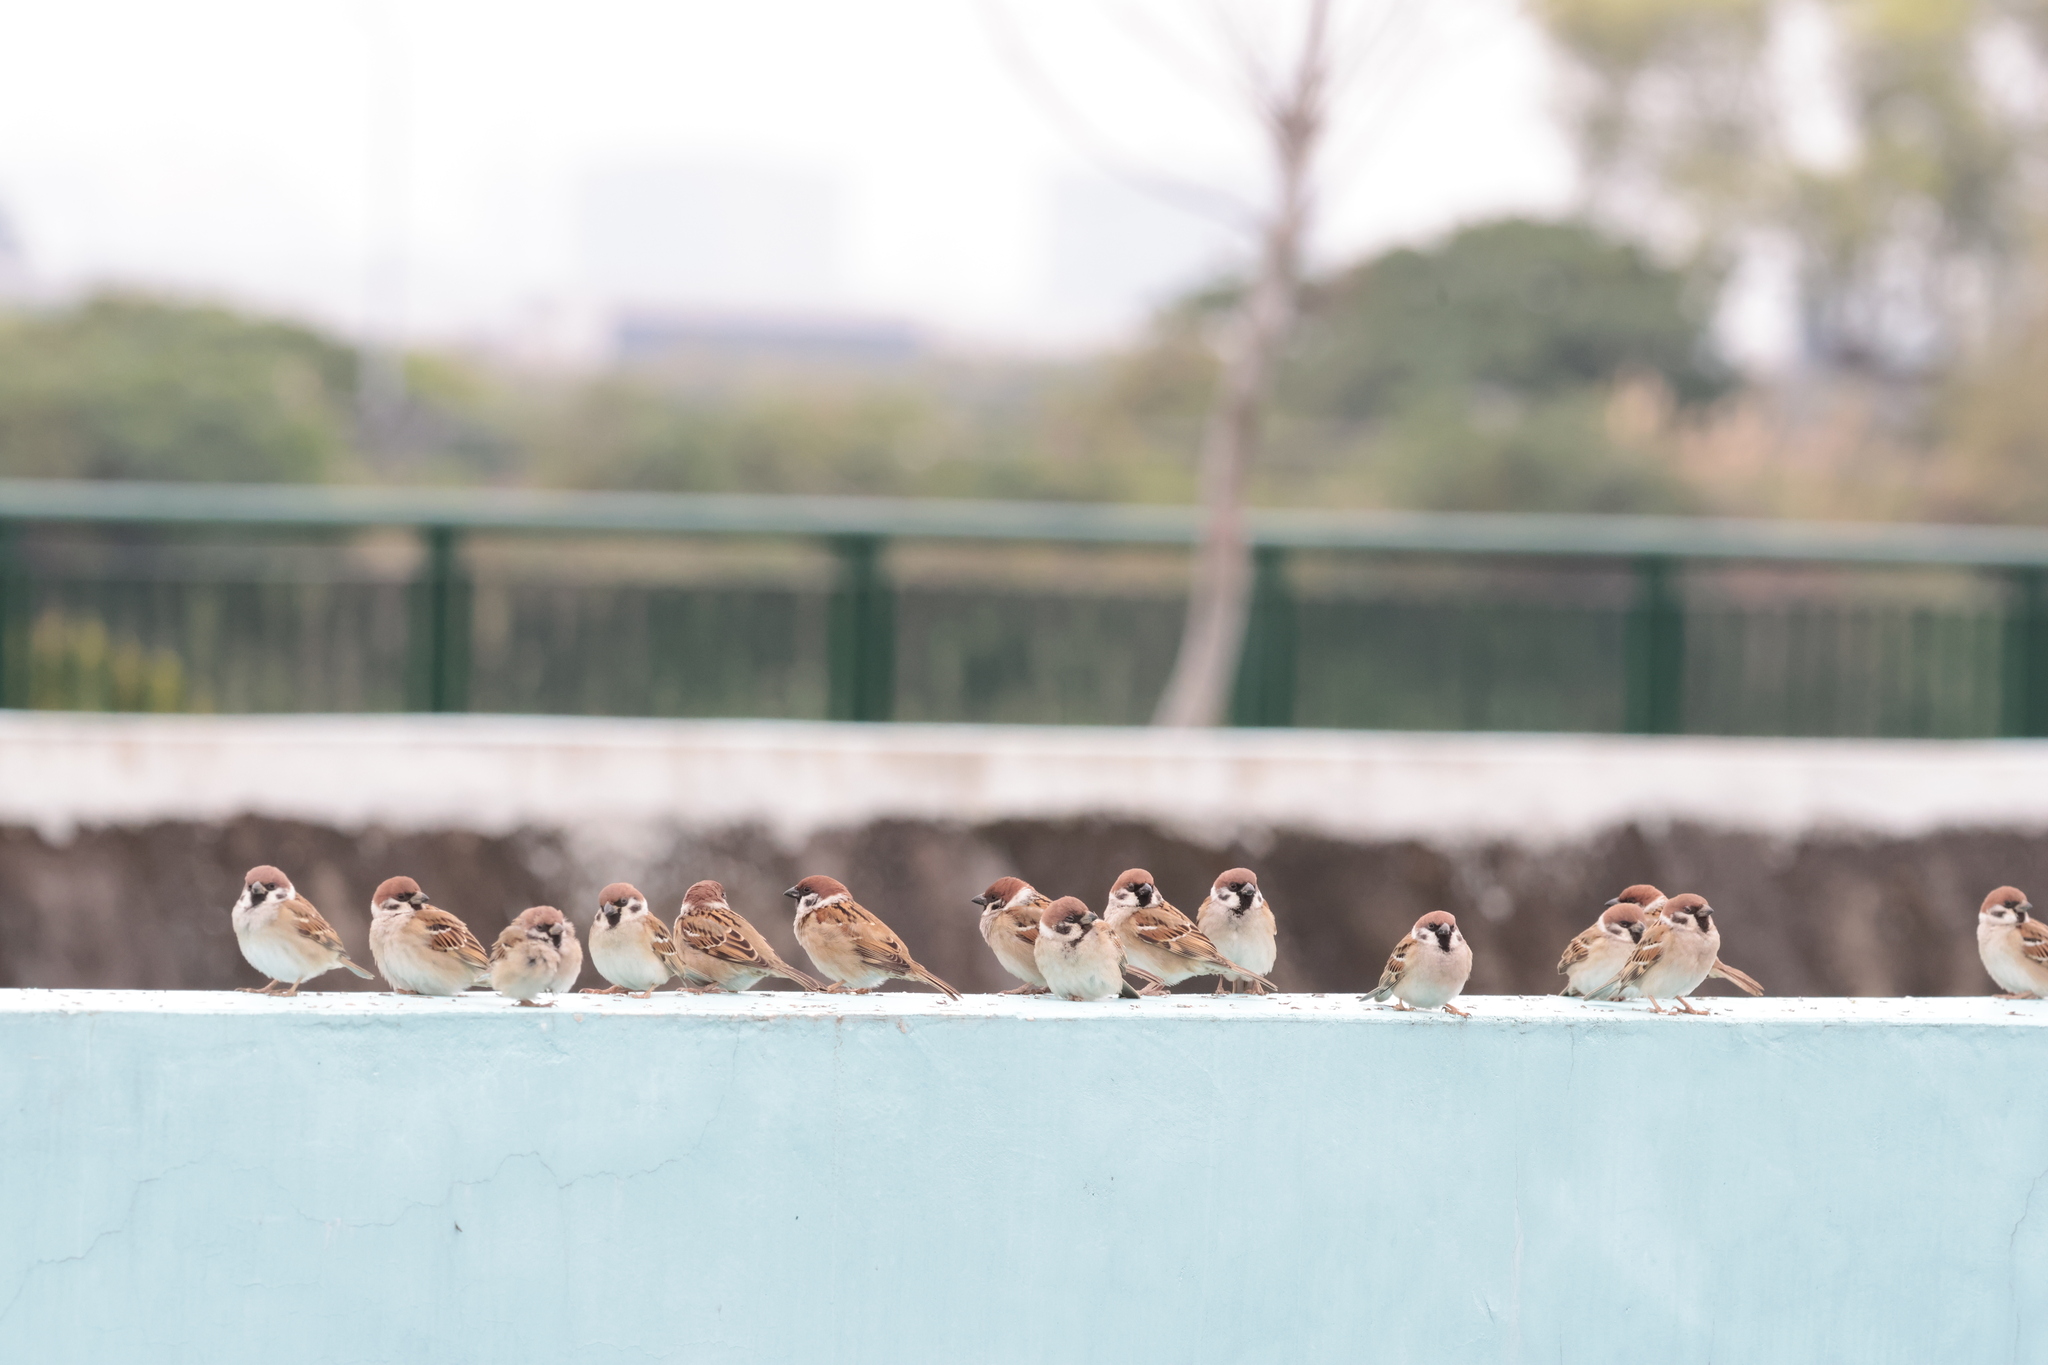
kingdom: Animalia
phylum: Chordata
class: Aves
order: Passeriformes
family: Passeridae
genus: Passer
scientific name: Passer montanus
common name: Eurasian tree sparrow
